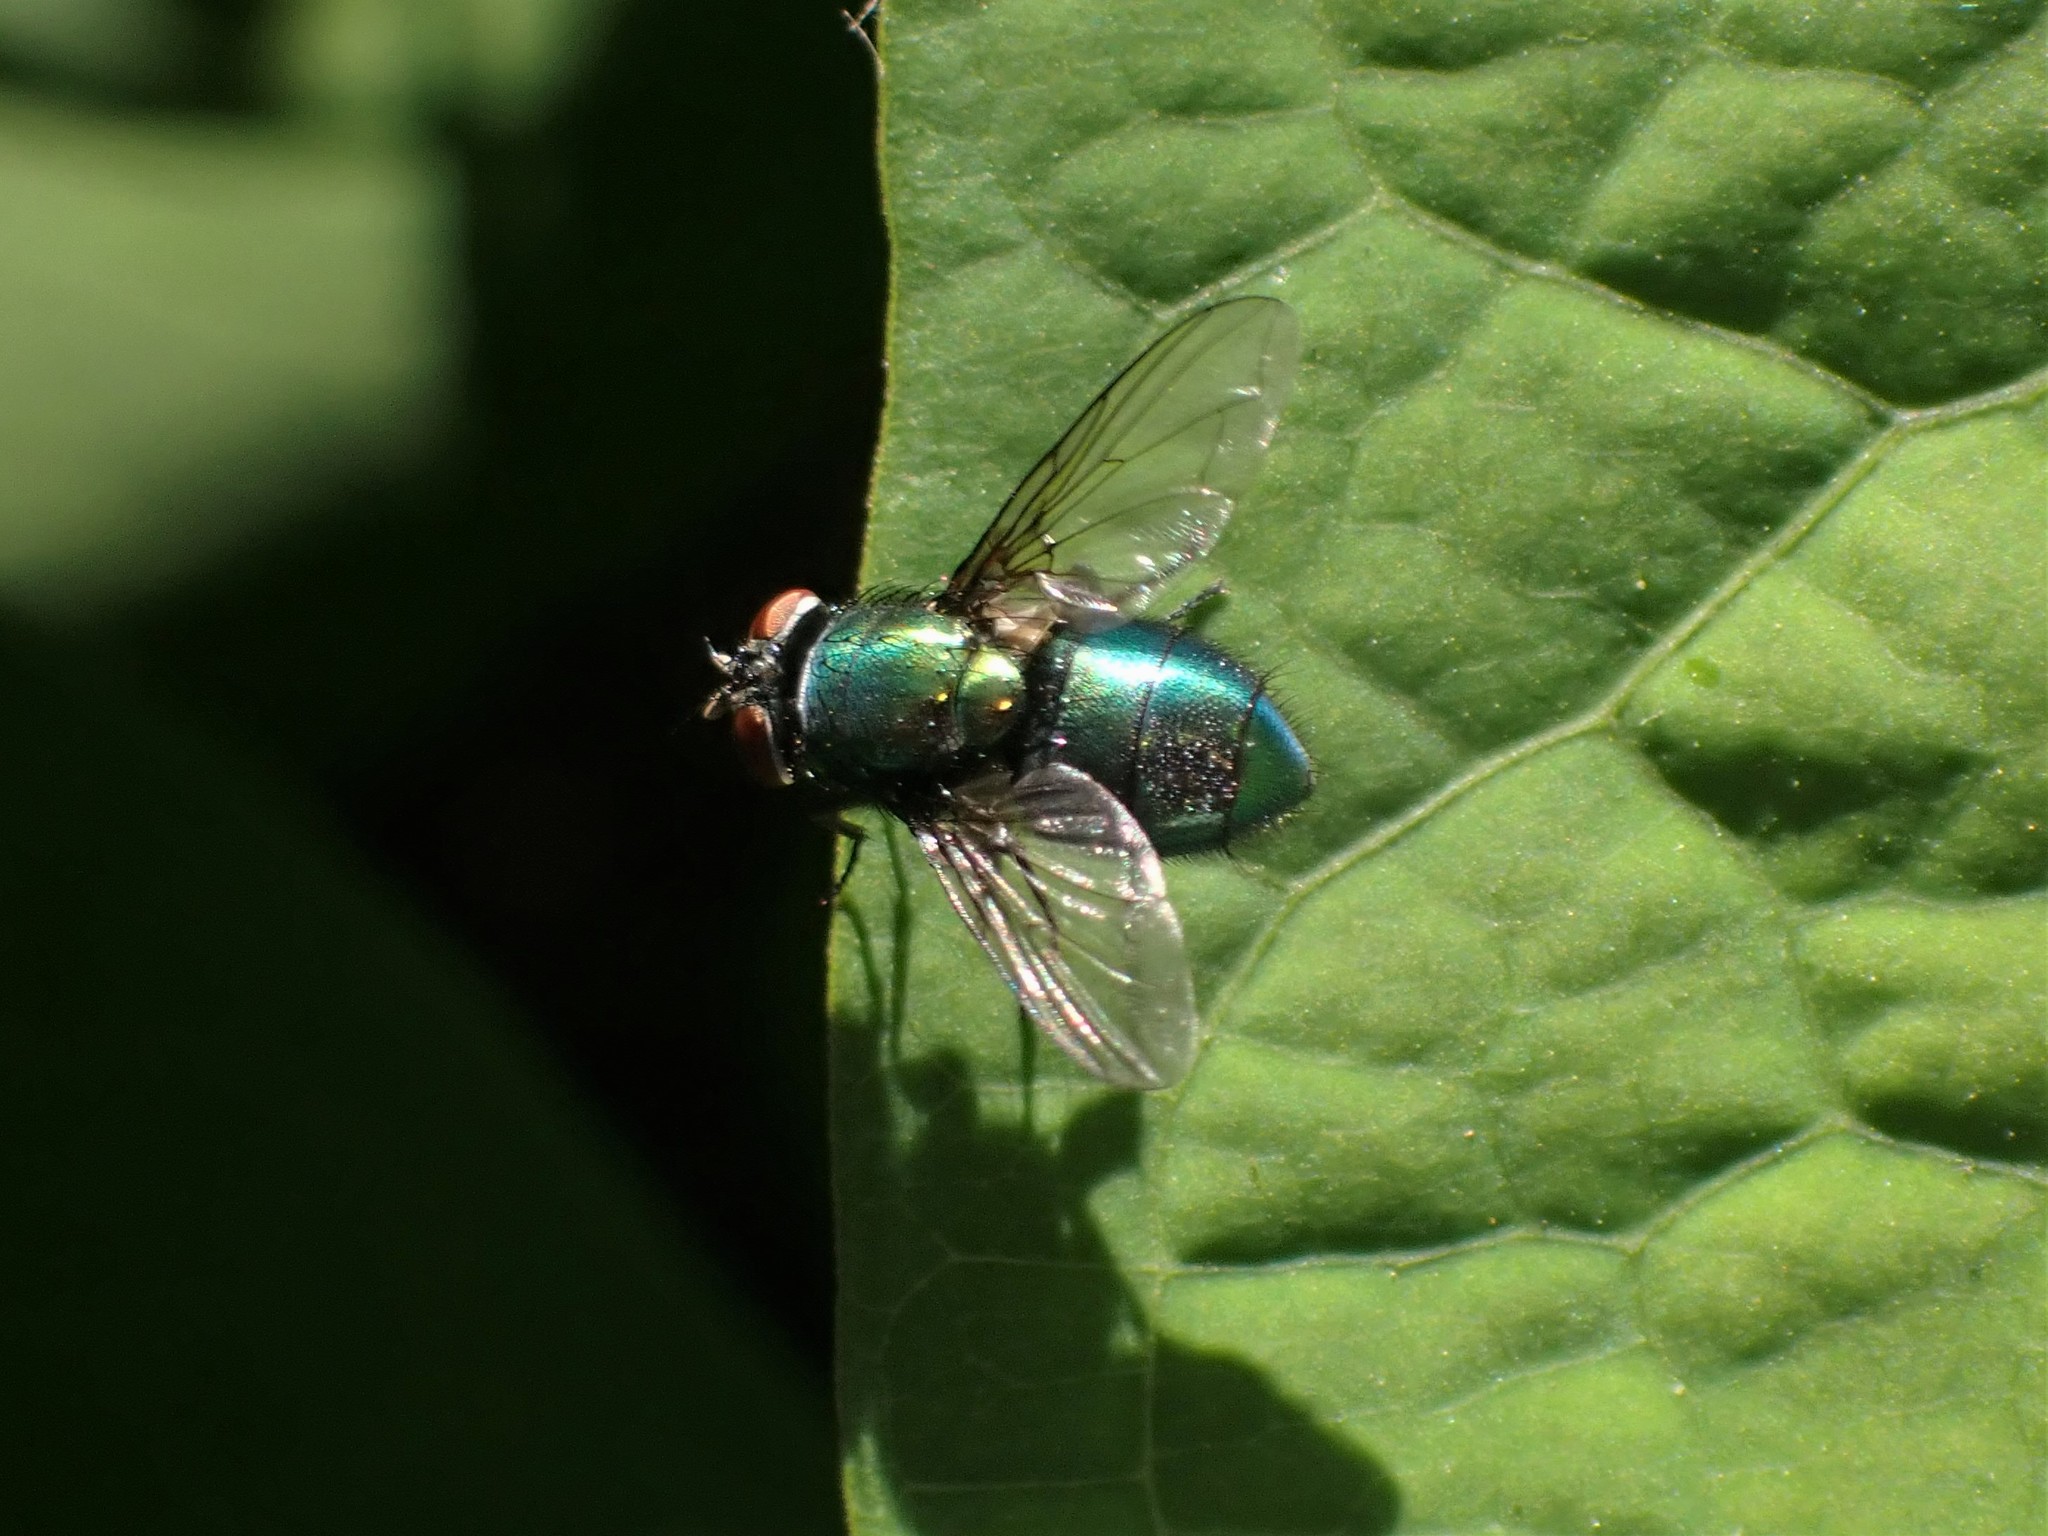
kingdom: Animalia
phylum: Arthropoda
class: Insecta
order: Diptera
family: Calliphoridae
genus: Phormia
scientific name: Phormia regina
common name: Black blow fly
